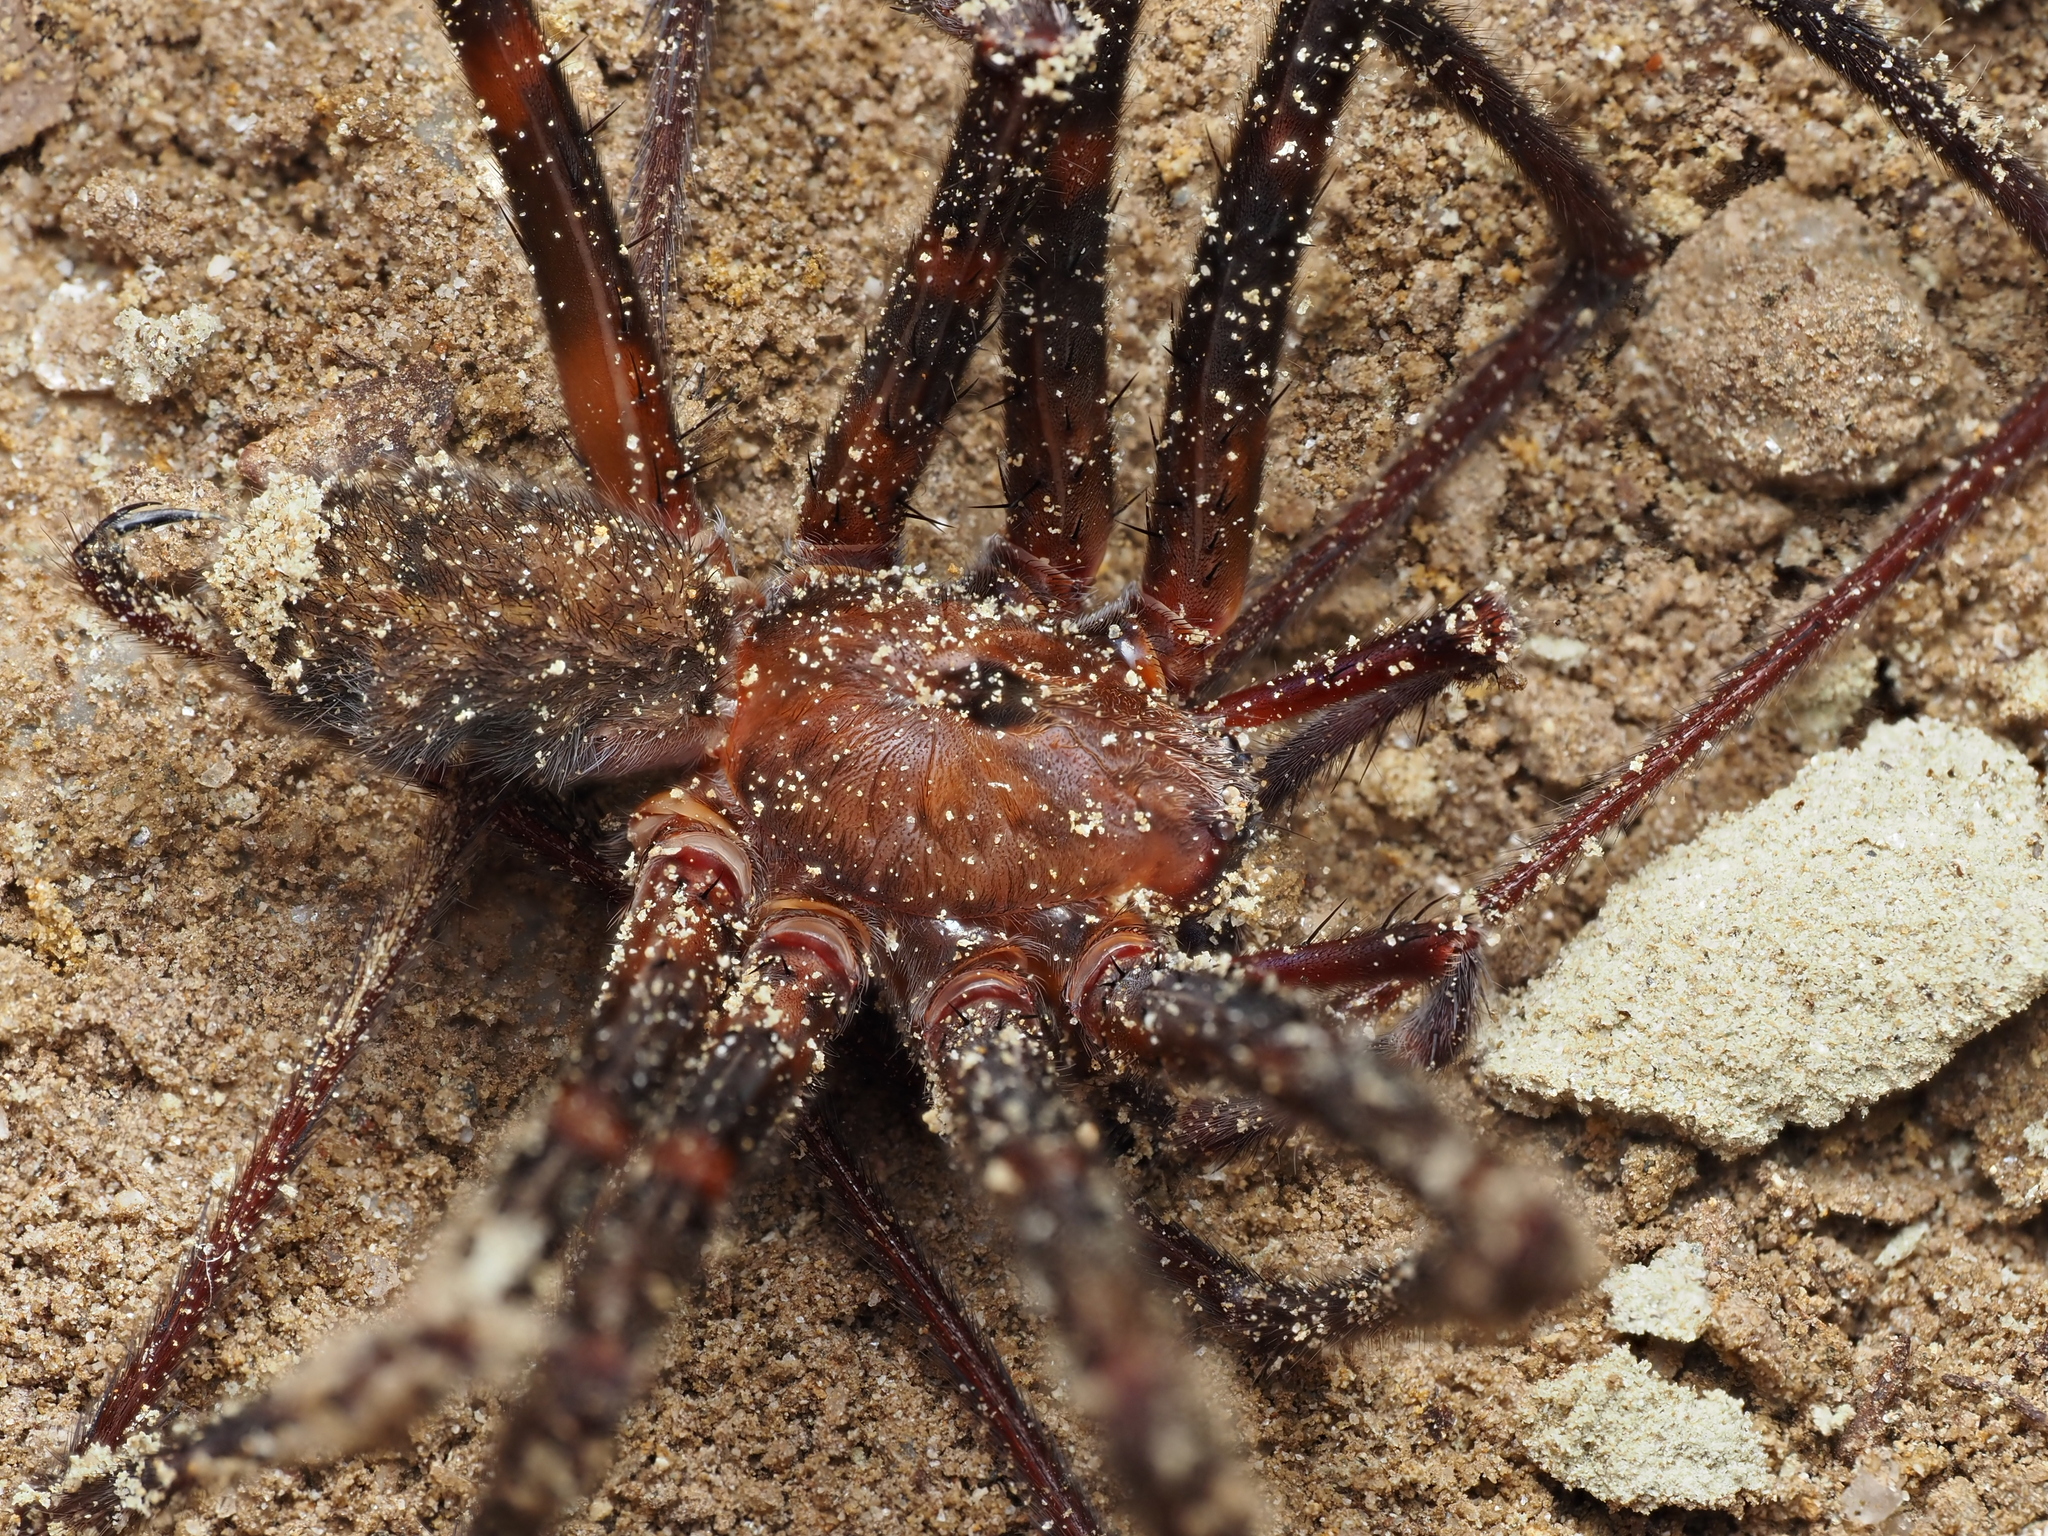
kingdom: Animalia
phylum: Arthropoda
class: Arachnida
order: Araneae
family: Gradungulidae
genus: Spelungula
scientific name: Spelungula cavernicola
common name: Nelson cave spider
